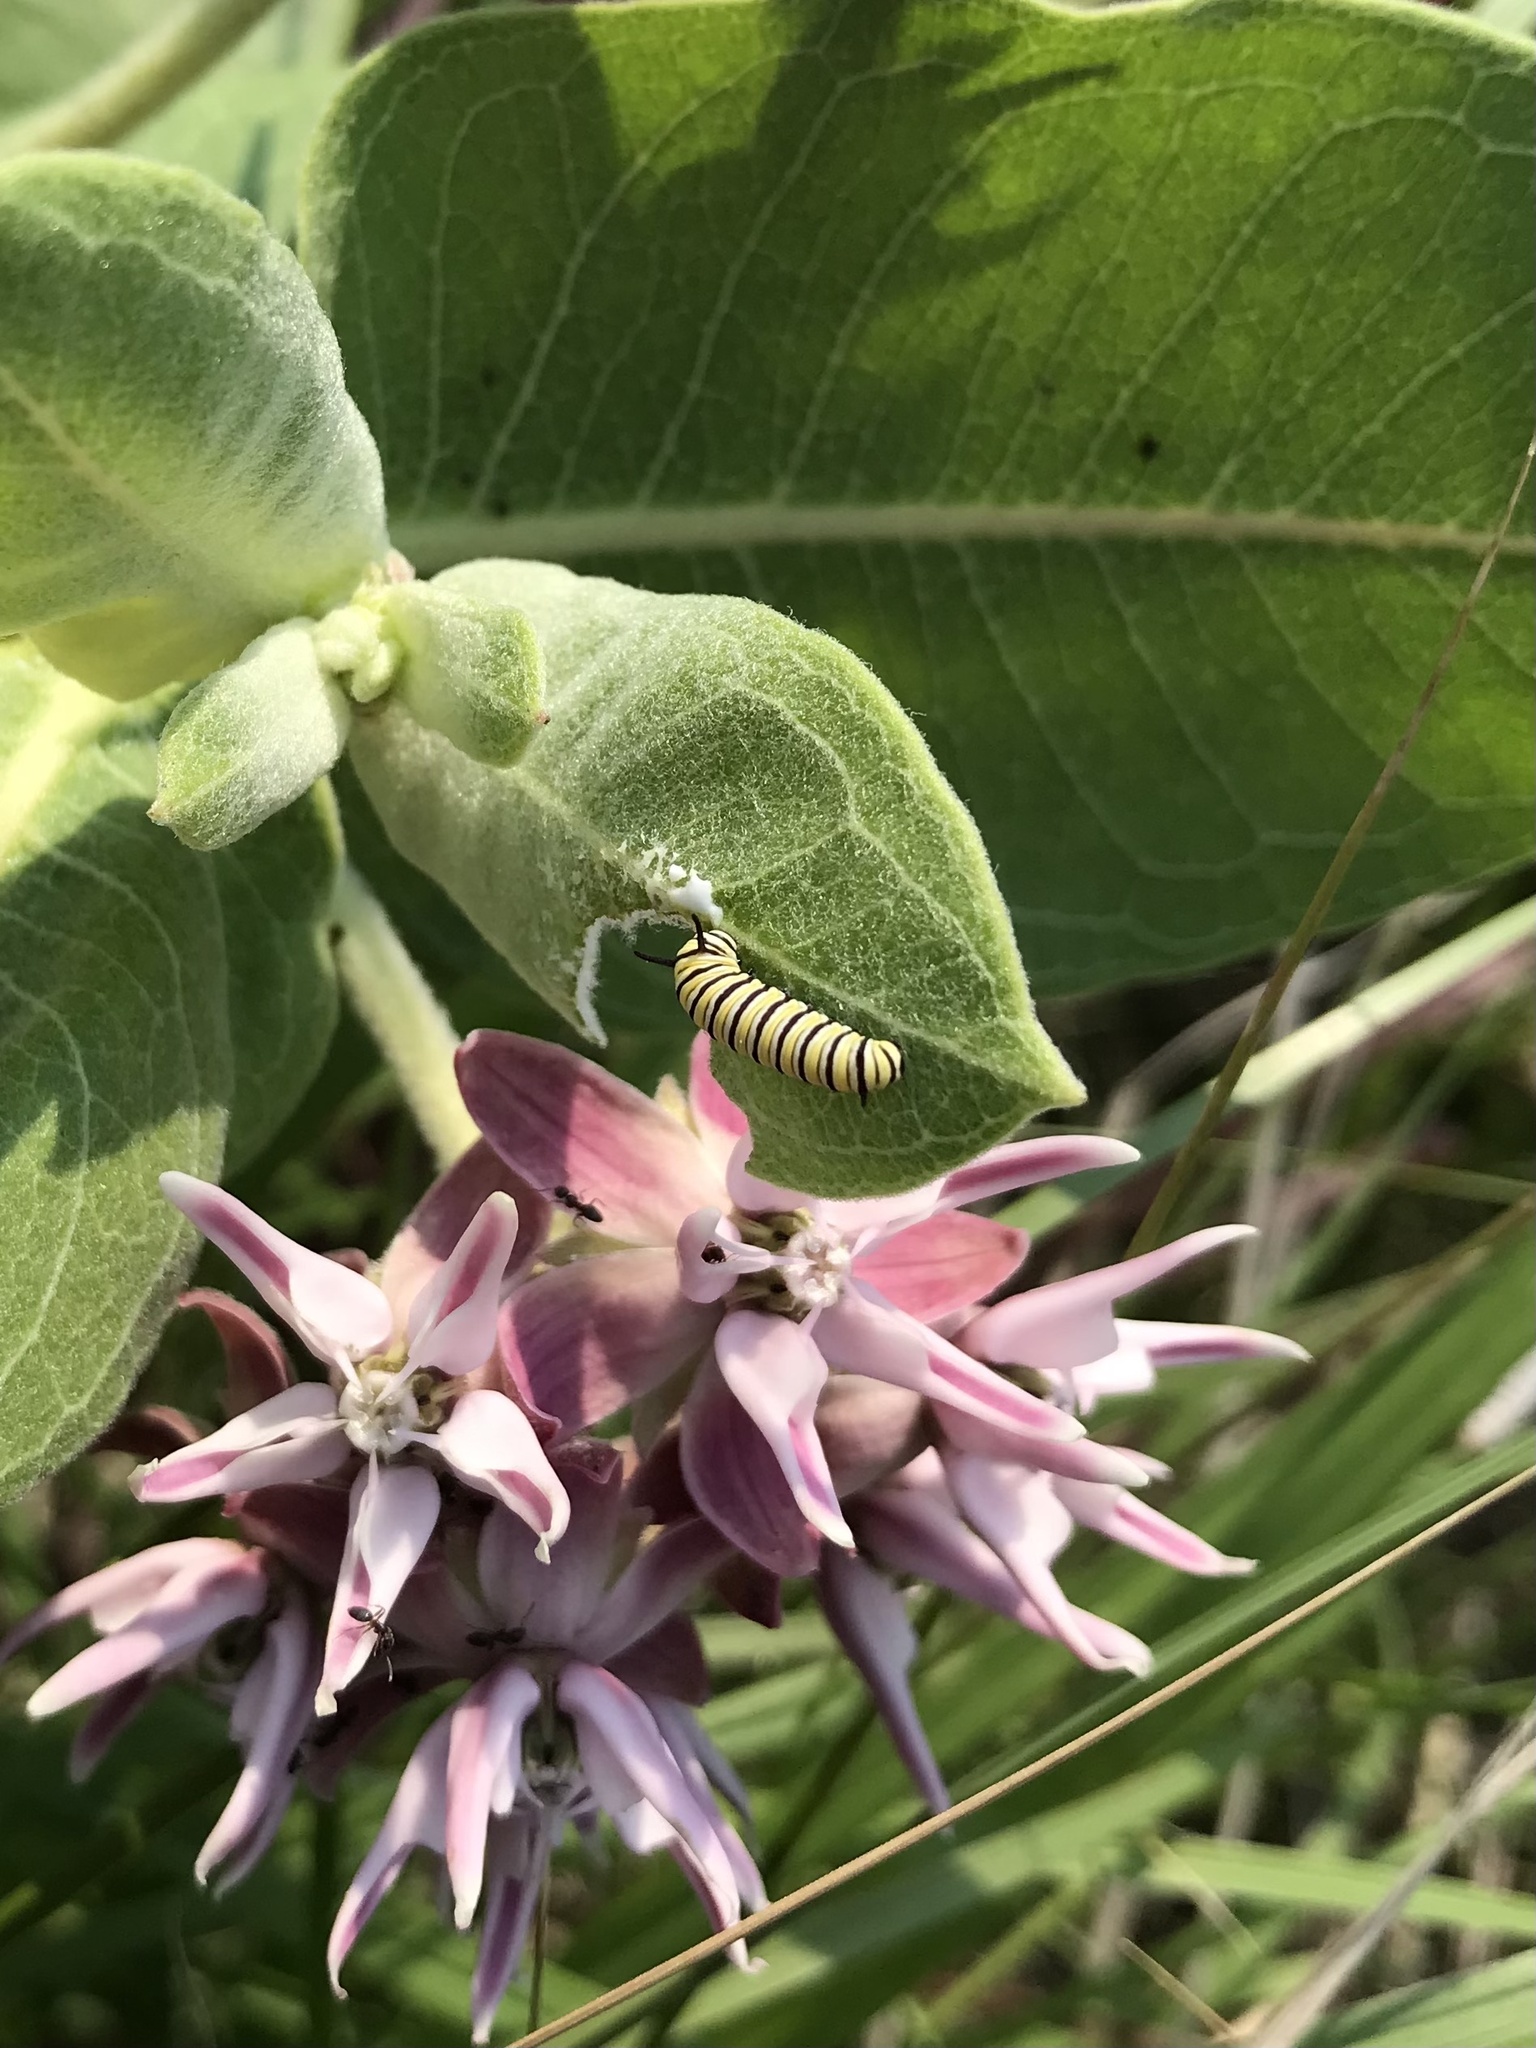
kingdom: Animalia
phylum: Arthropoda
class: Insecta
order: Lepidoptera
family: Nymphalidae
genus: Danaus
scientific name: Danaus plexippus
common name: Monarch
